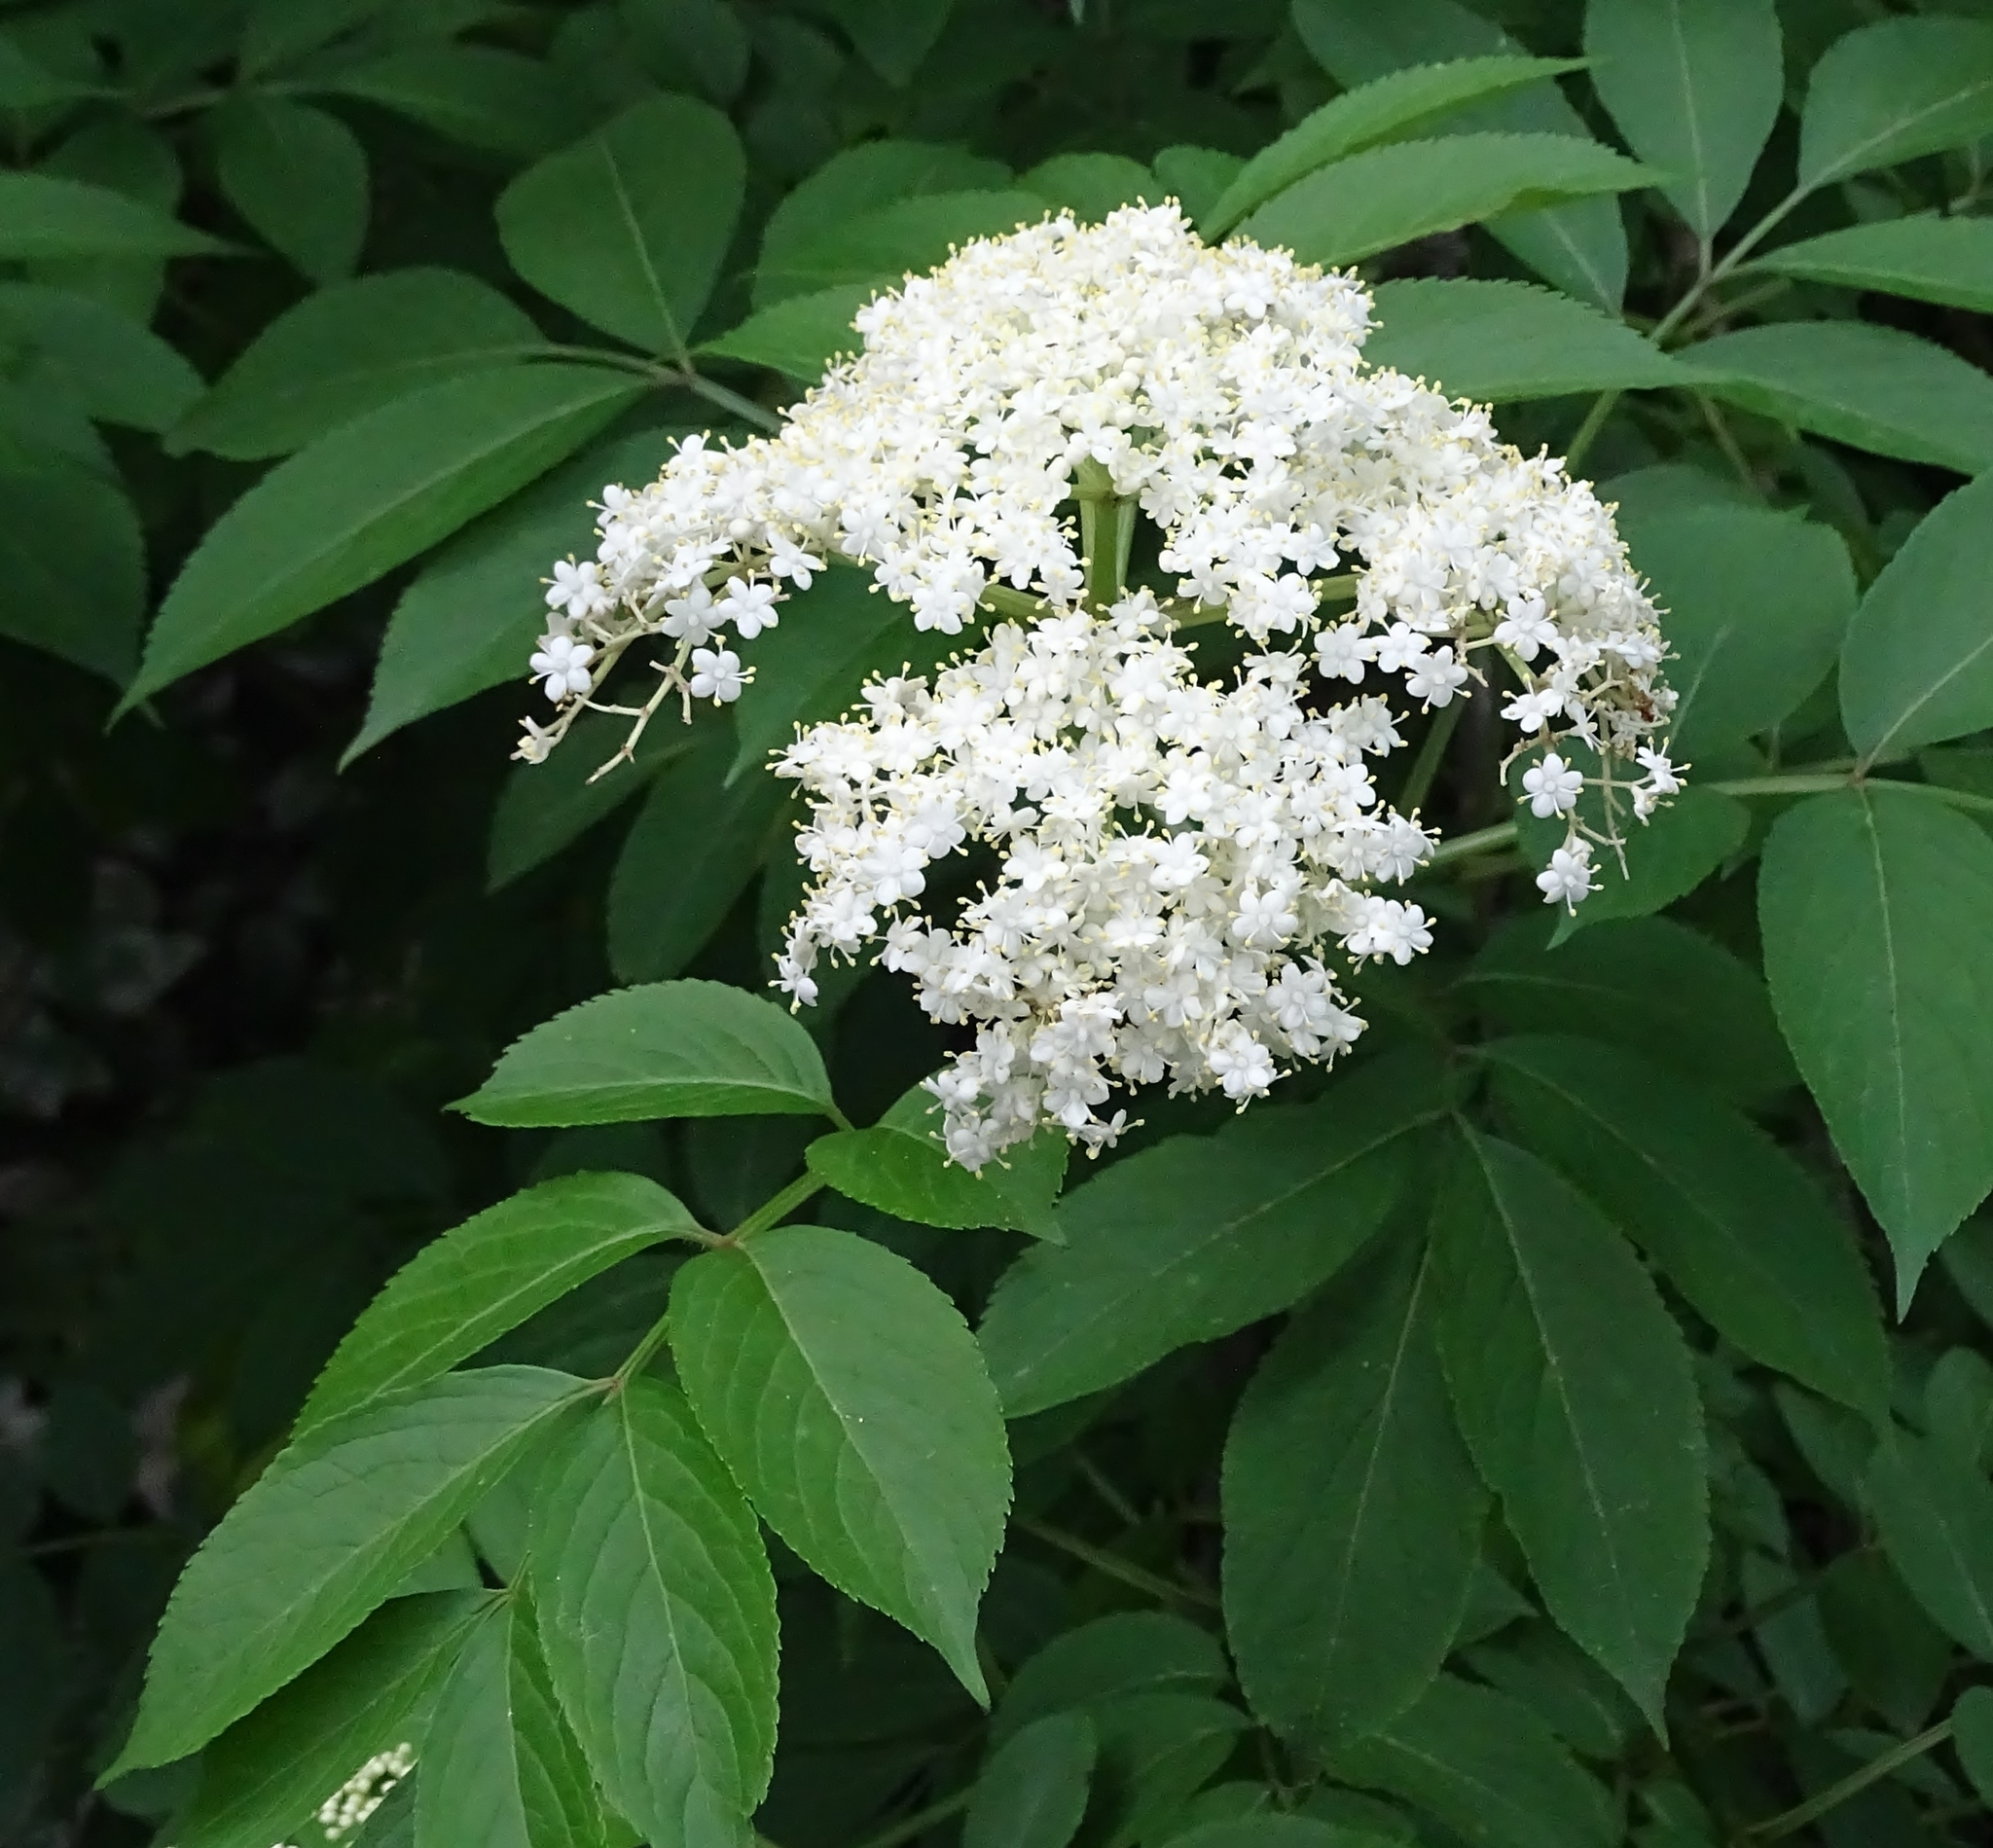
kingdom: Plantae
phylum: Tracheophyta
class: Magnoliopsida
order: Dipsacales
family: Viburnaceae
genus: Sambucus
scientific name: Sambucus canadensis
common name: American elder
